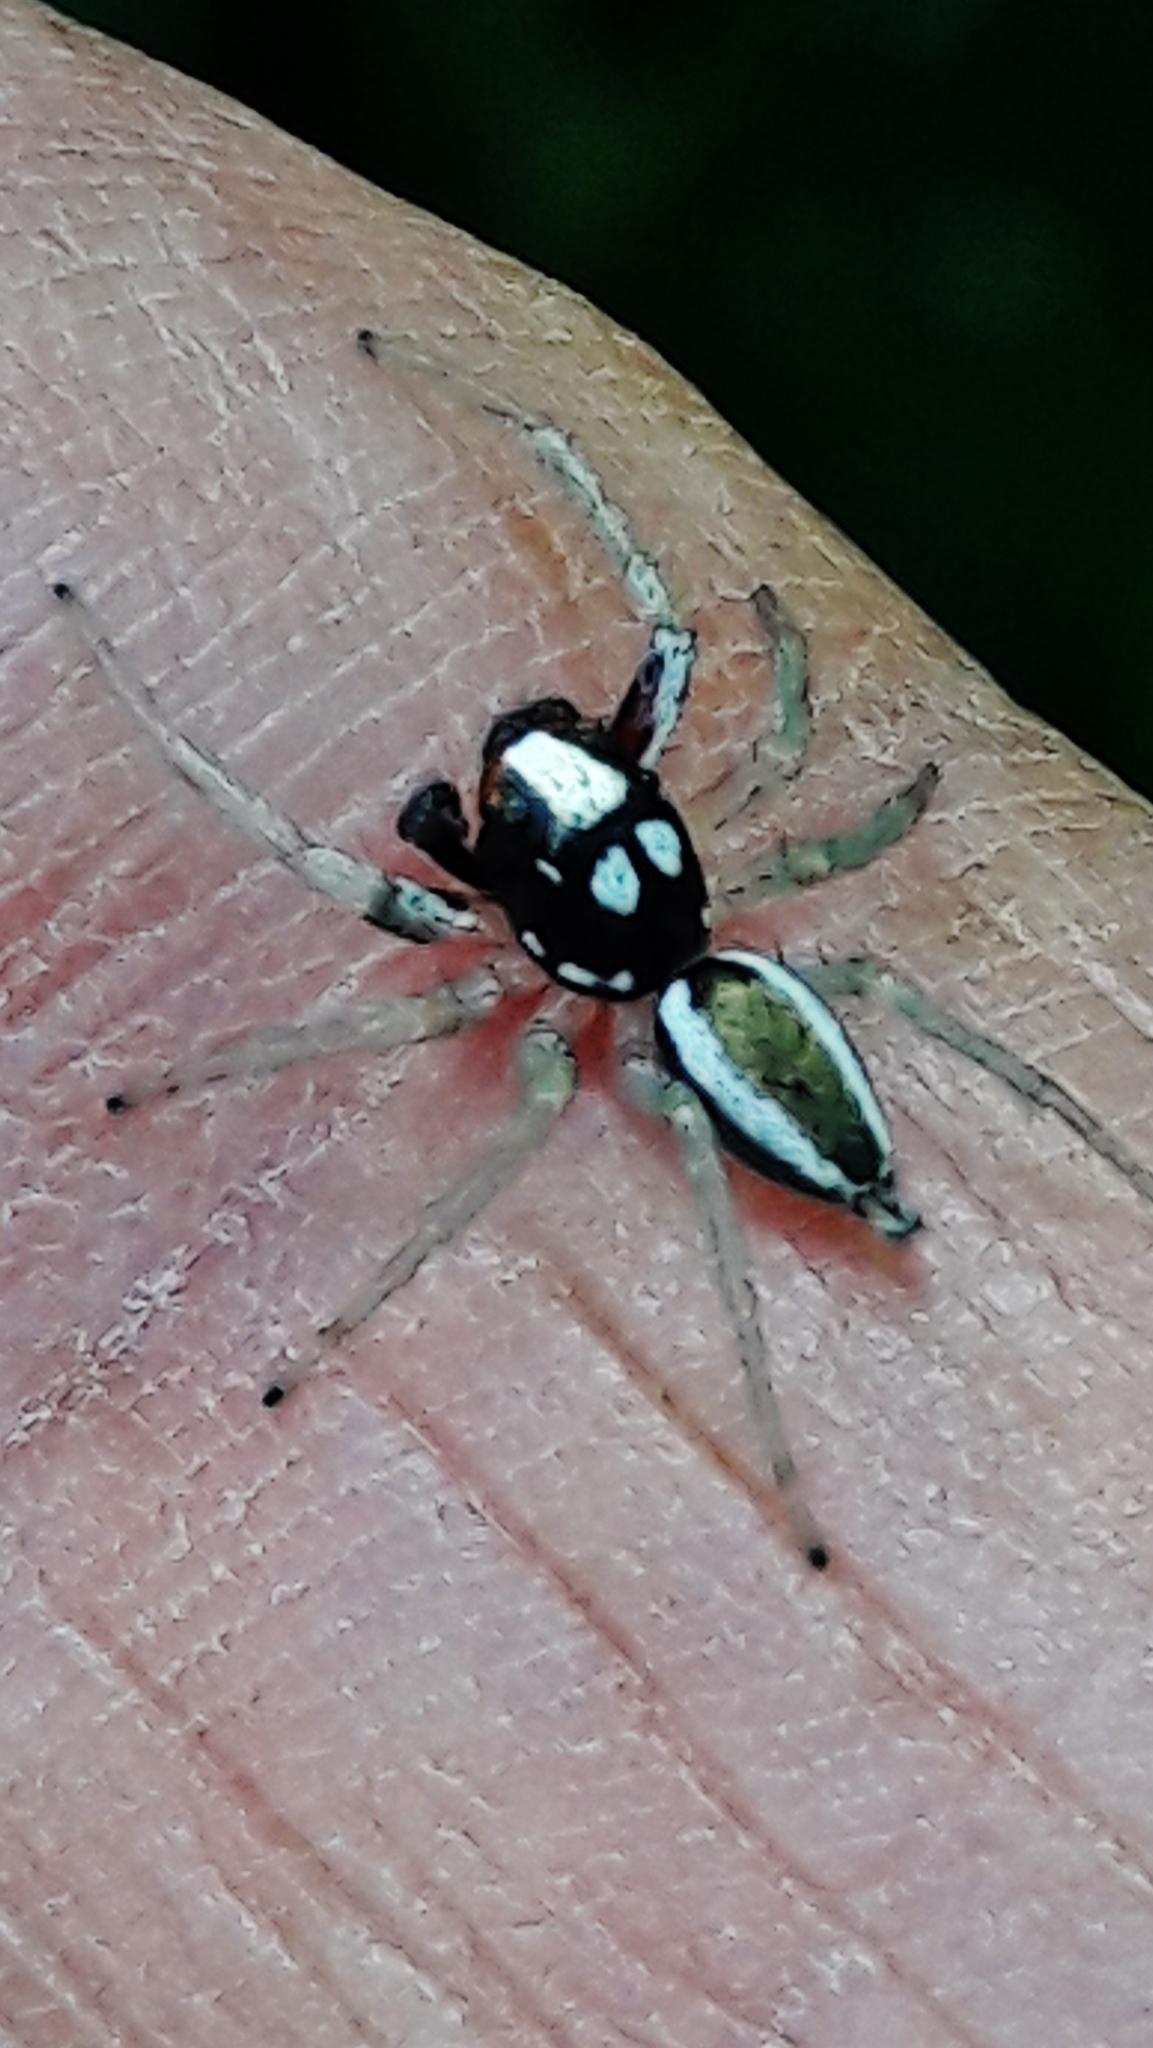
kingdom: Animalia
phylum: Arthropoda
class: Arachnida
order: Araneae
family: Salticidae
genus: Chira
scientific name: Chira spinosa
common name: Jumping spiders
